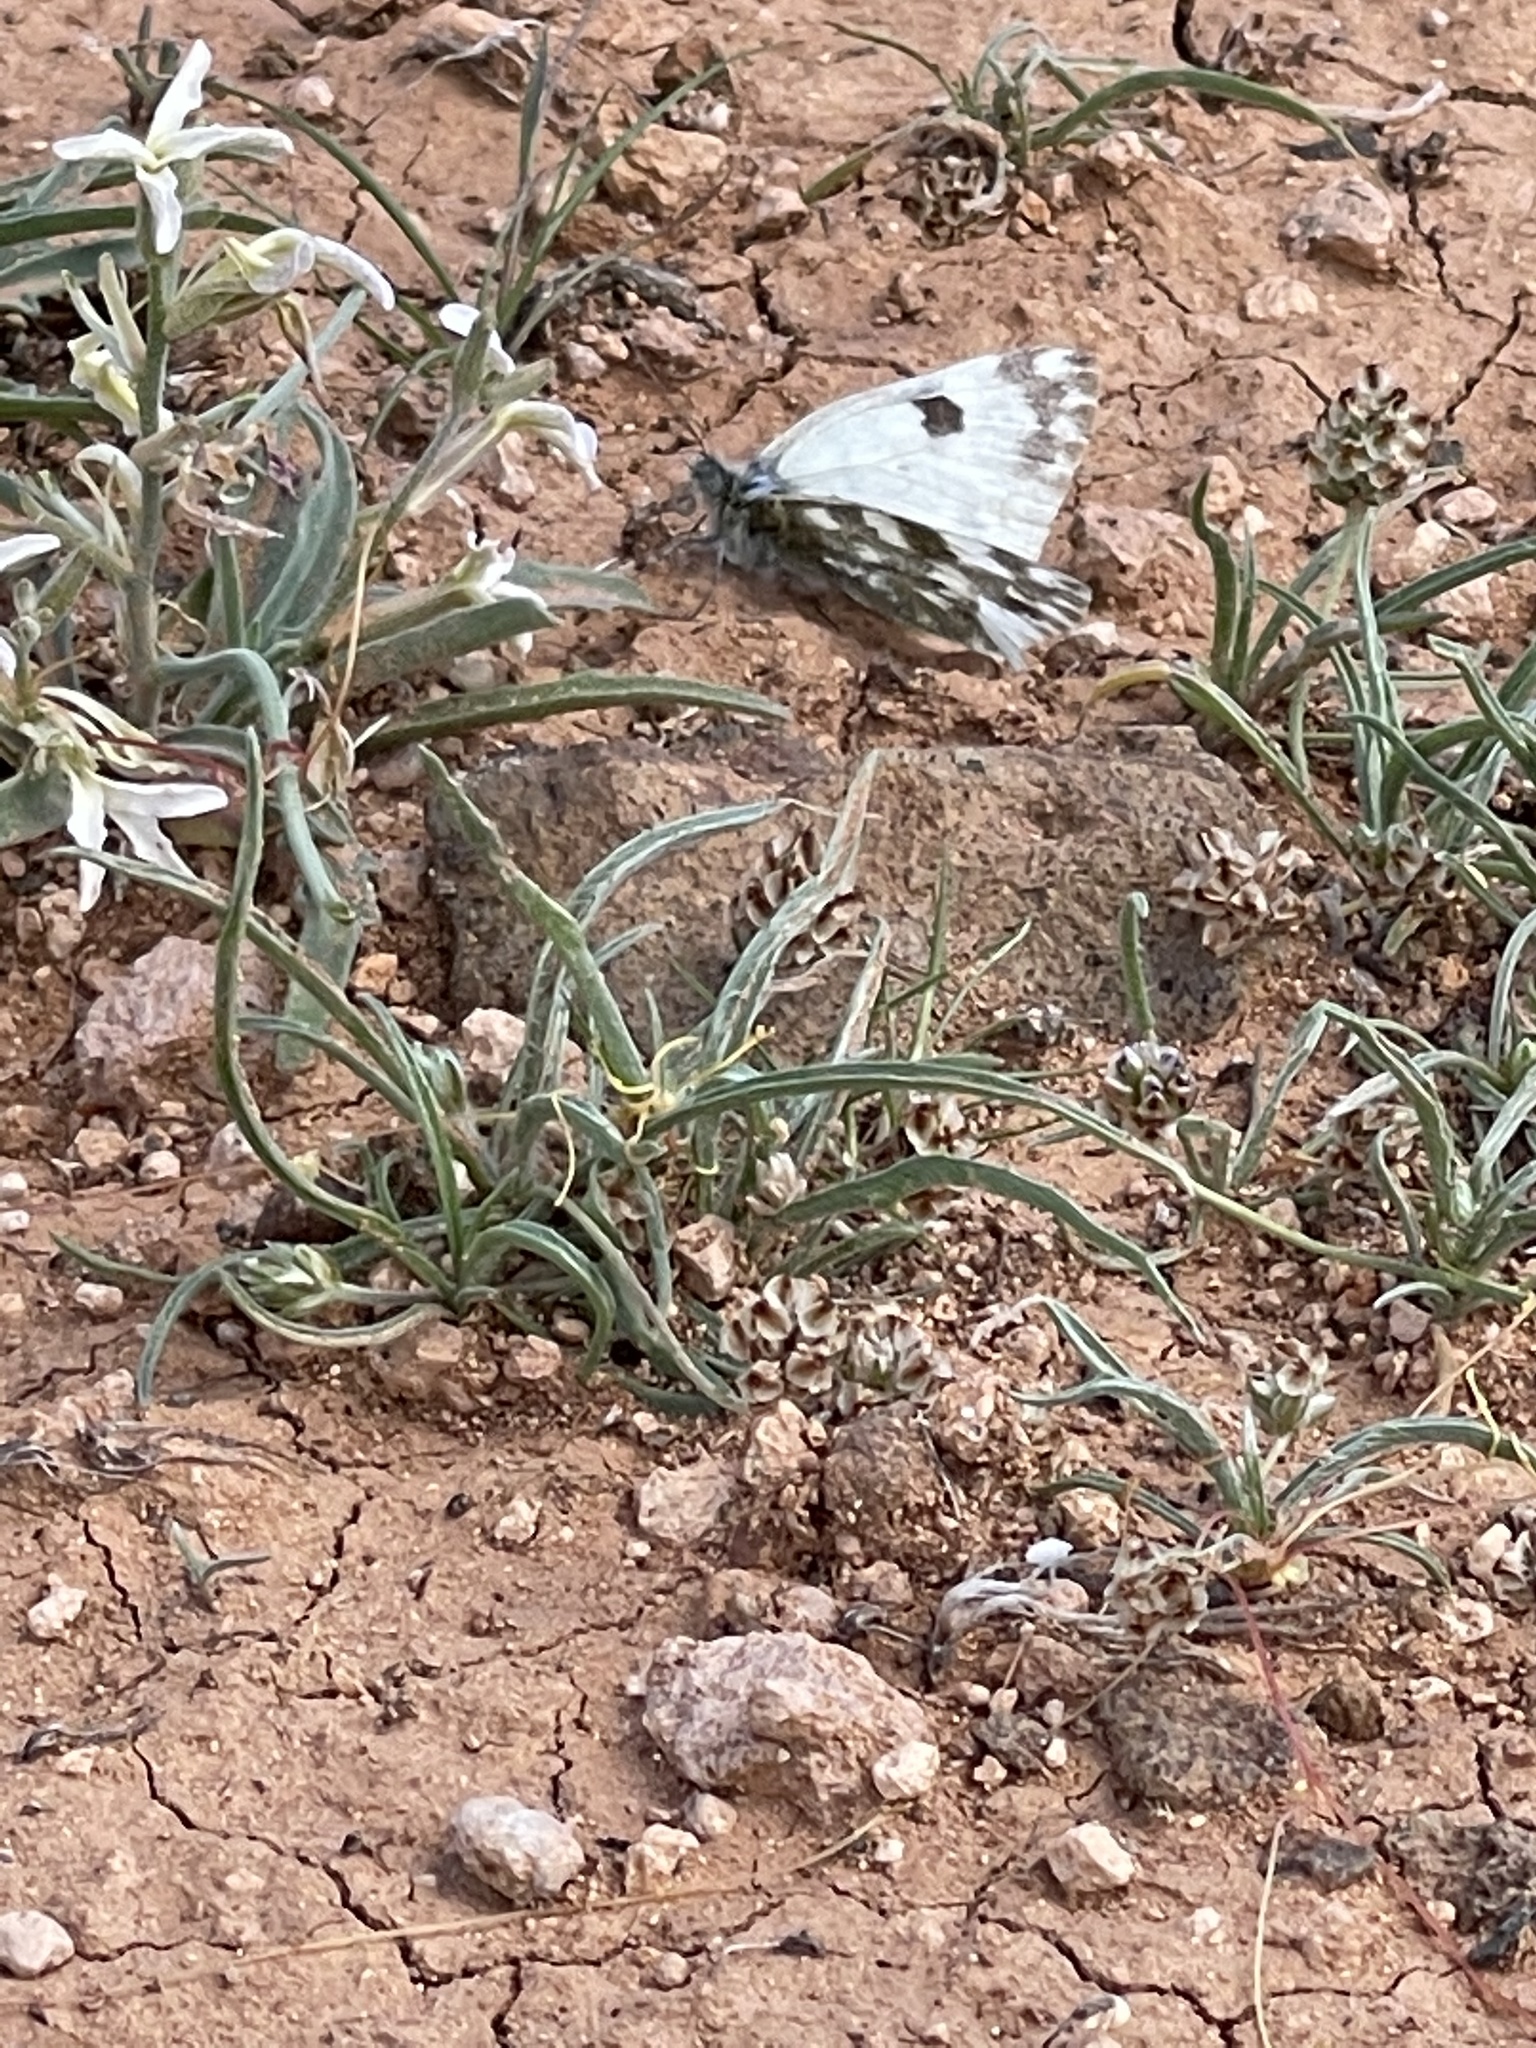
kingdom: Animalia
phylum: Arthropoda
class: Insecta
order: Lepidoptera
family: Pieridae
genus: Pontia
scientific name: Pontia daplidice
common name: Bath white
